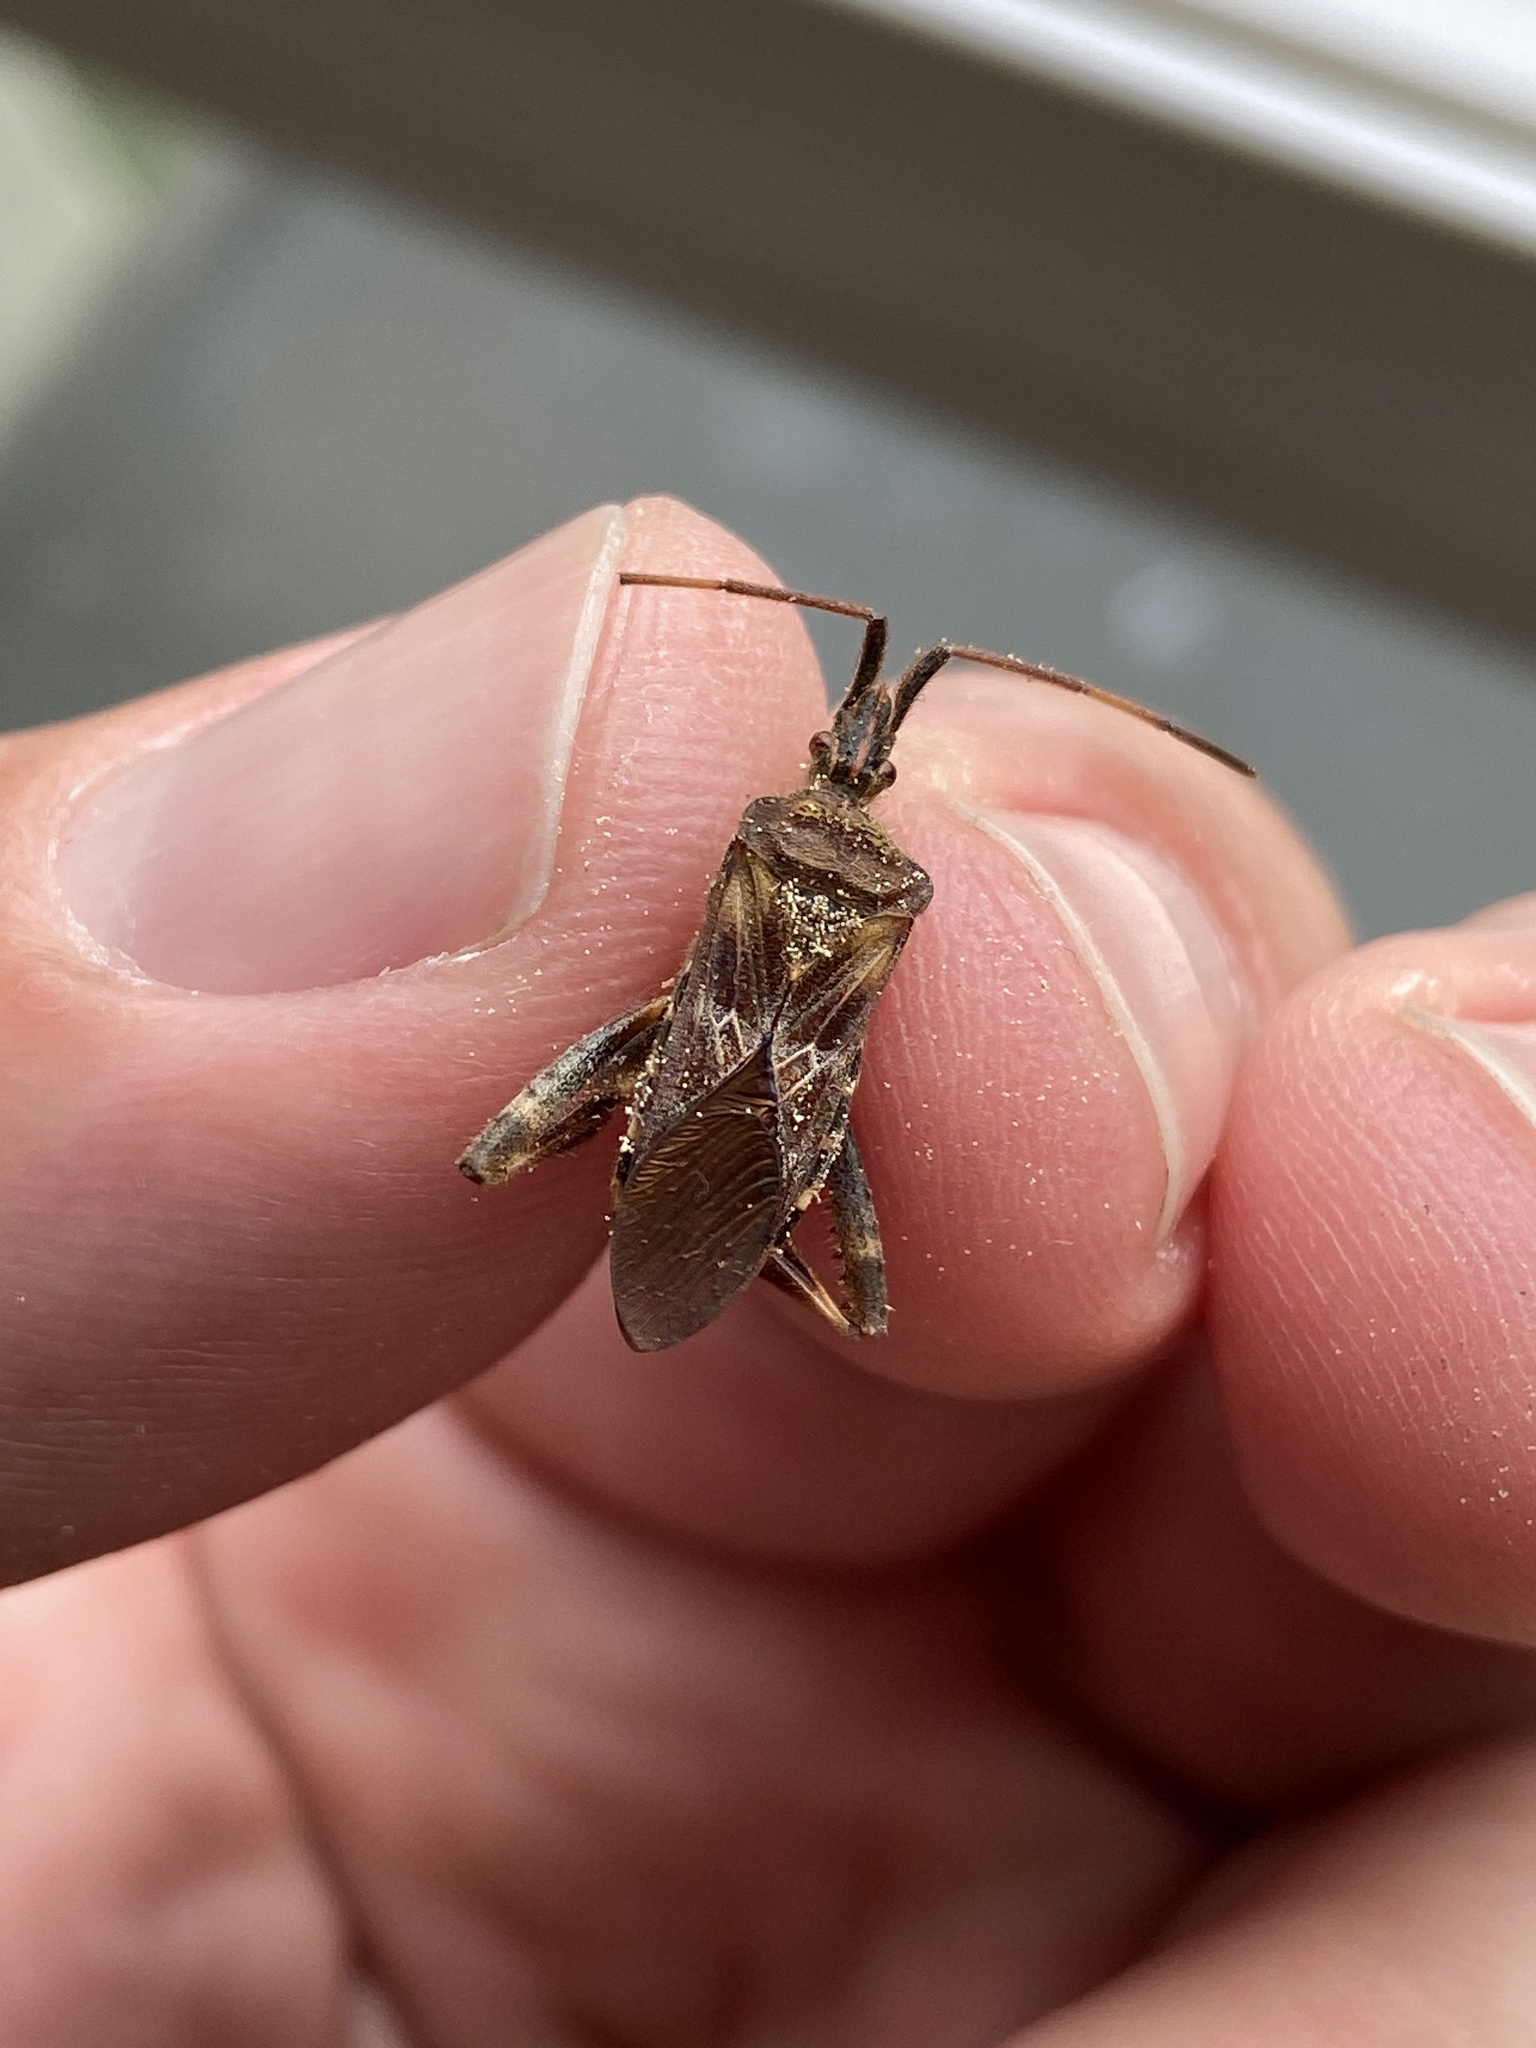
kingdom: Animalia
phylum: Arthropoda
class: Insecta
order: Hemiptera
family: Coreidae
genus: Leptoglossus
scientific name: Leptoglossus occidentalis
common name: Western conifer-seed bug
